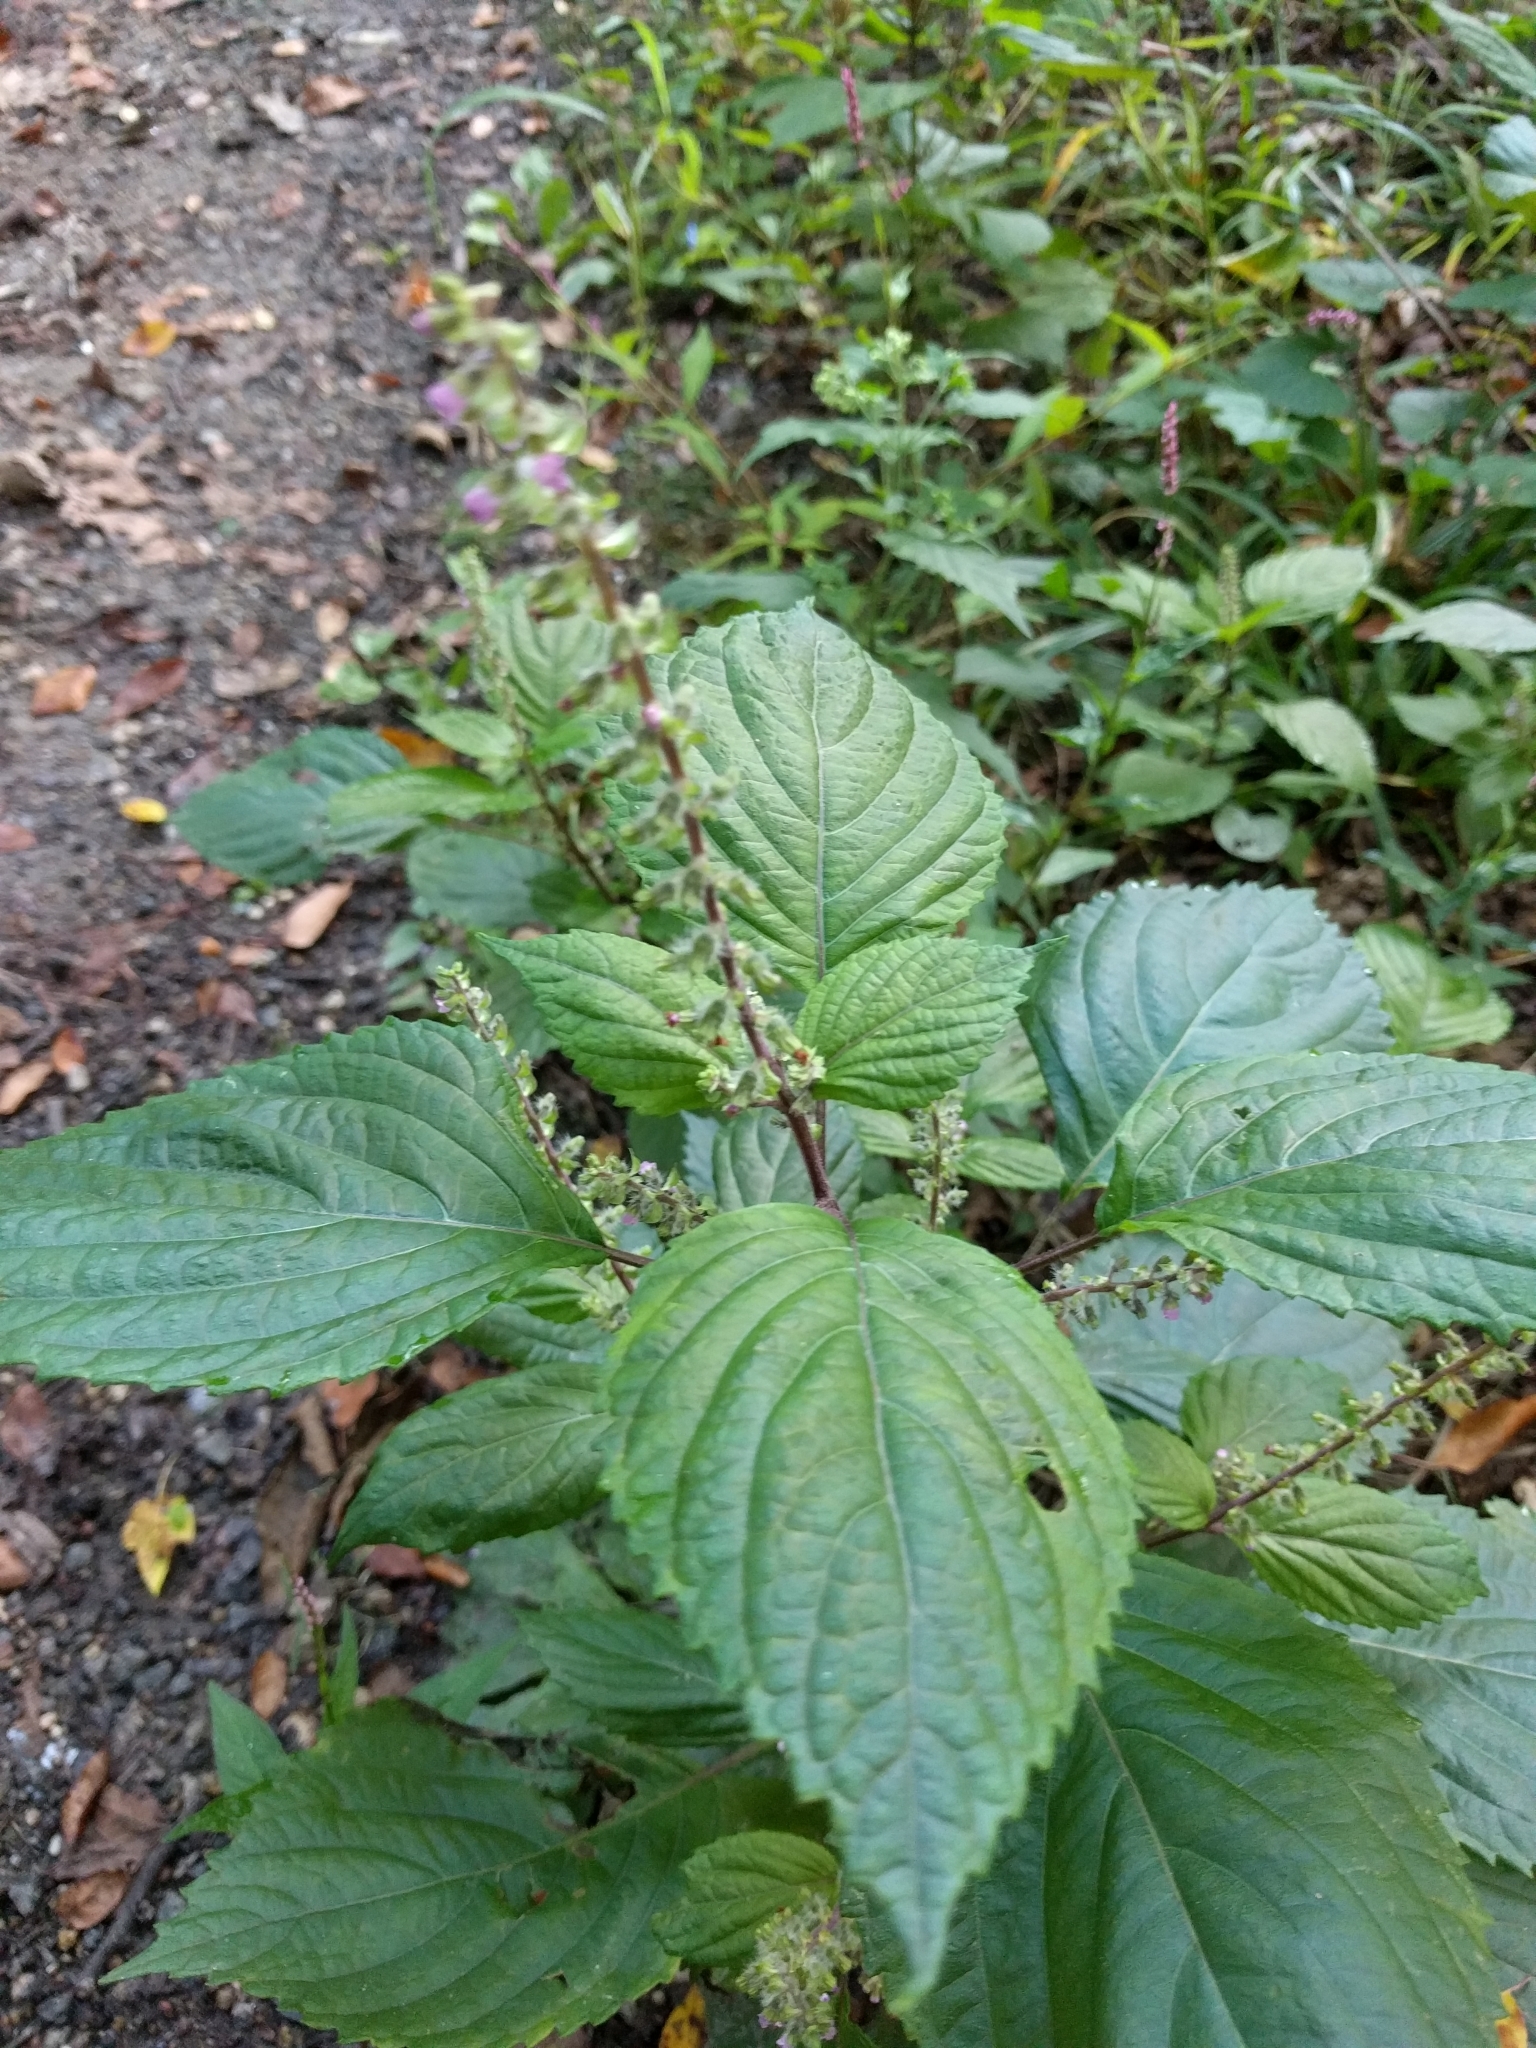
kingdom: Plantae
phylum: Tracheophyta
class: Magnoliopsida
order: Lamiales
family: Lamiaceae
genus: Perilla
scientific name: Perilla frutescens
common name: Perilla
